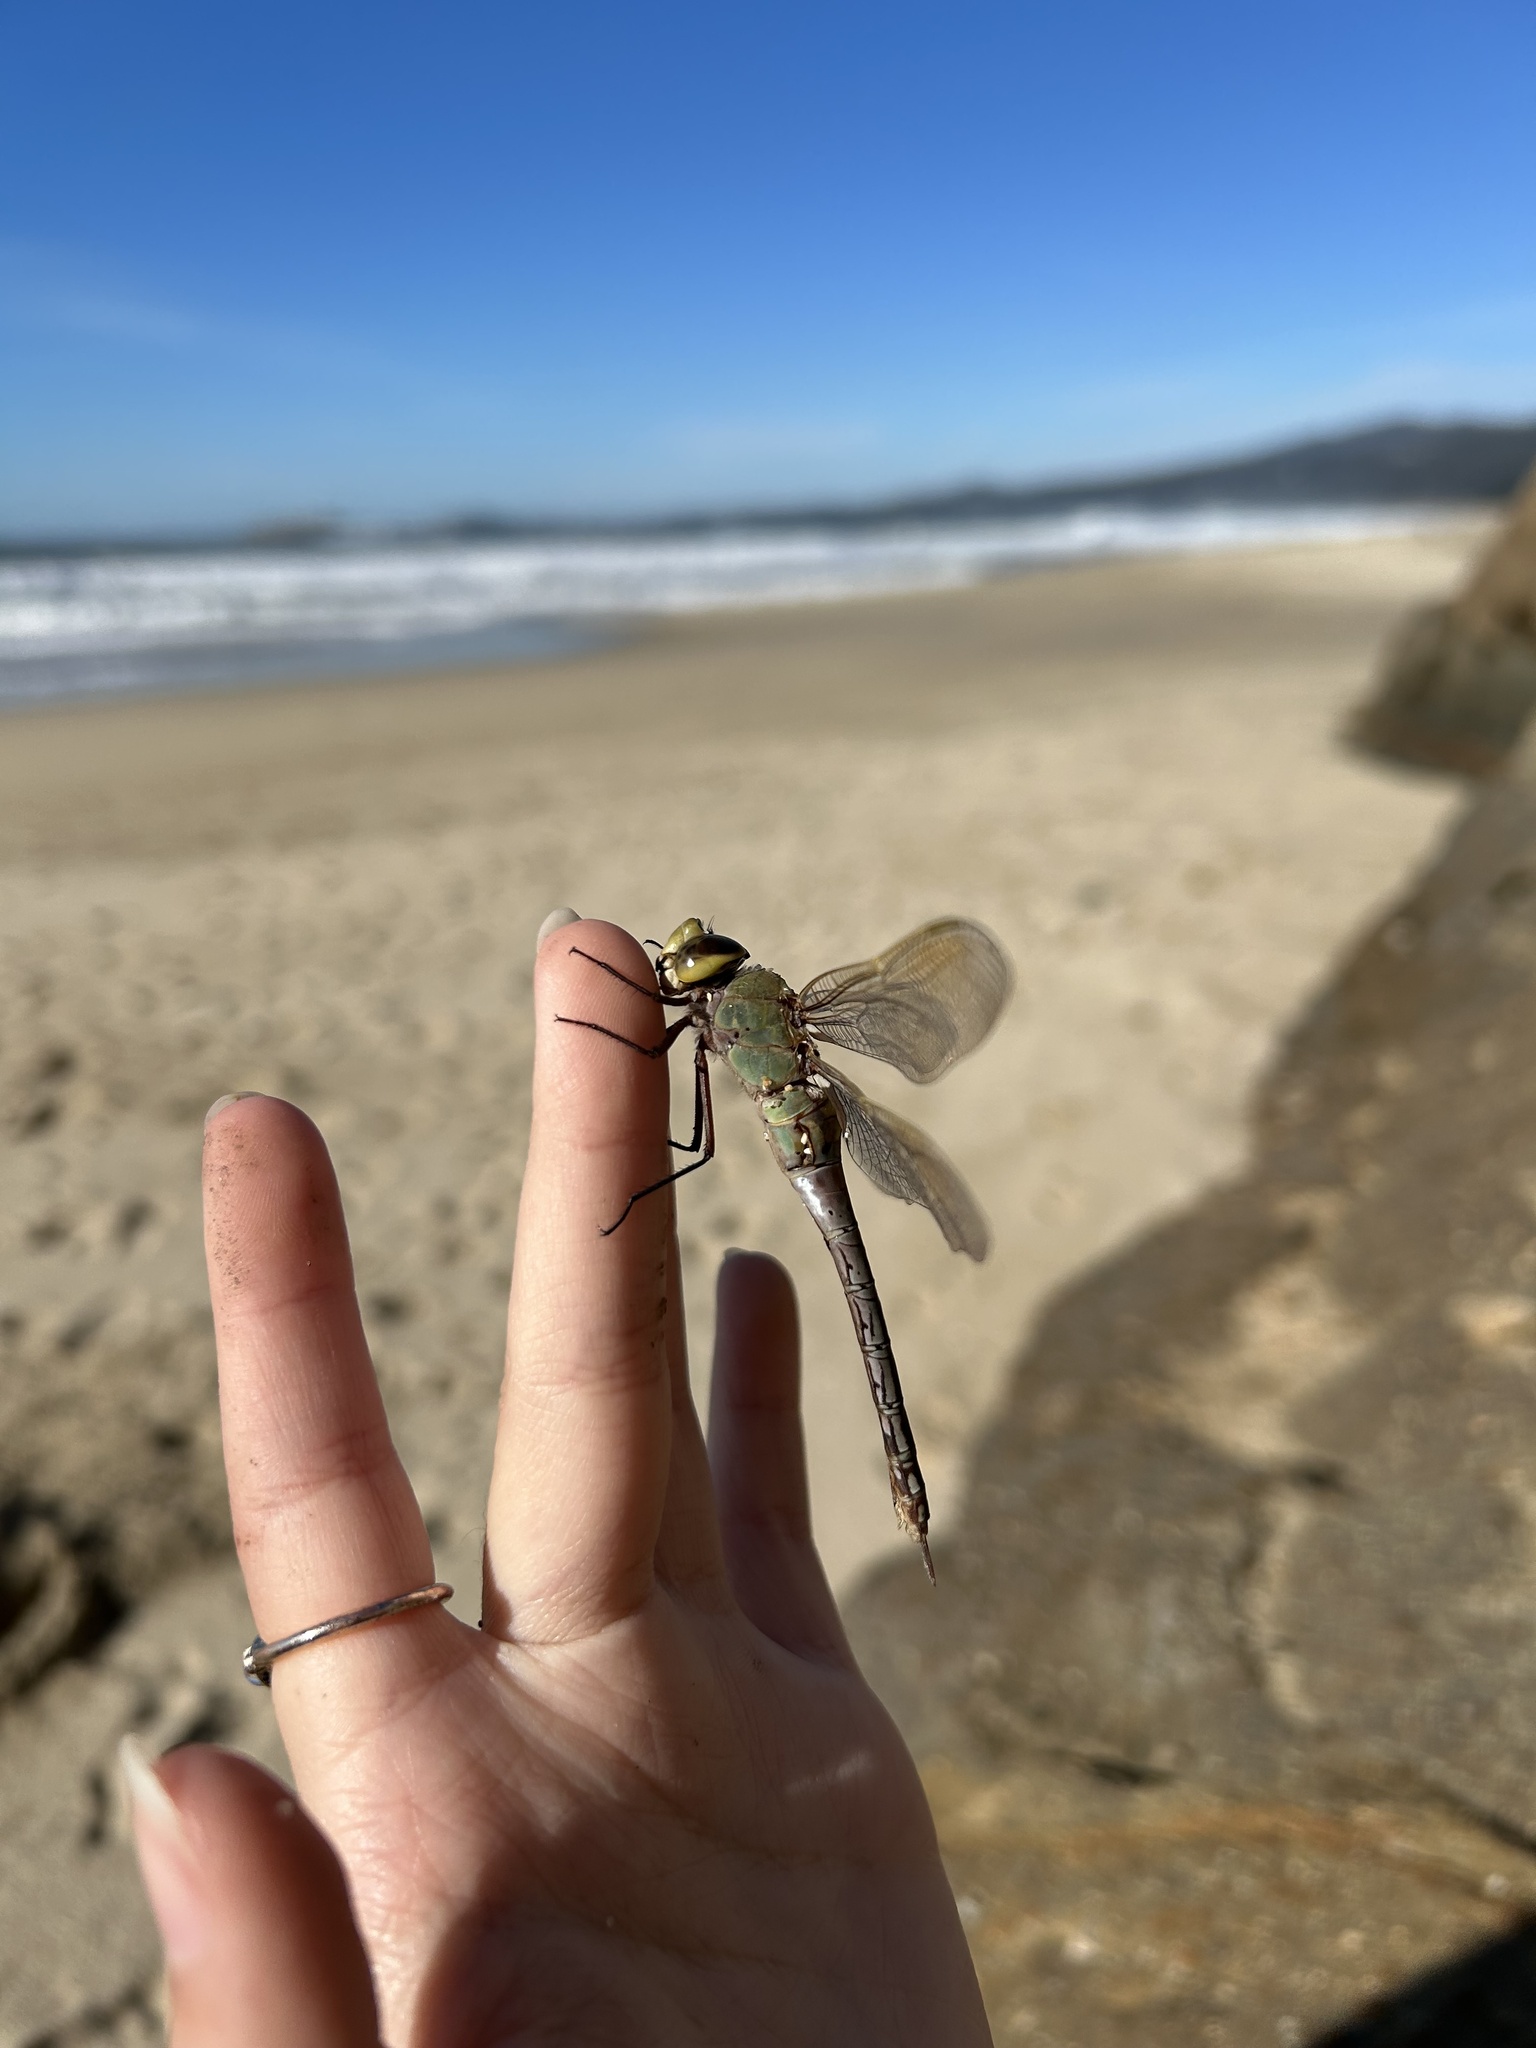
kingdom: Animalia
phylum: Arthropoda
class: Insecta
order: Odonata
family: Aeshnidae
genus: Anax
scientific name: Anax junius
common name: Common green darner
